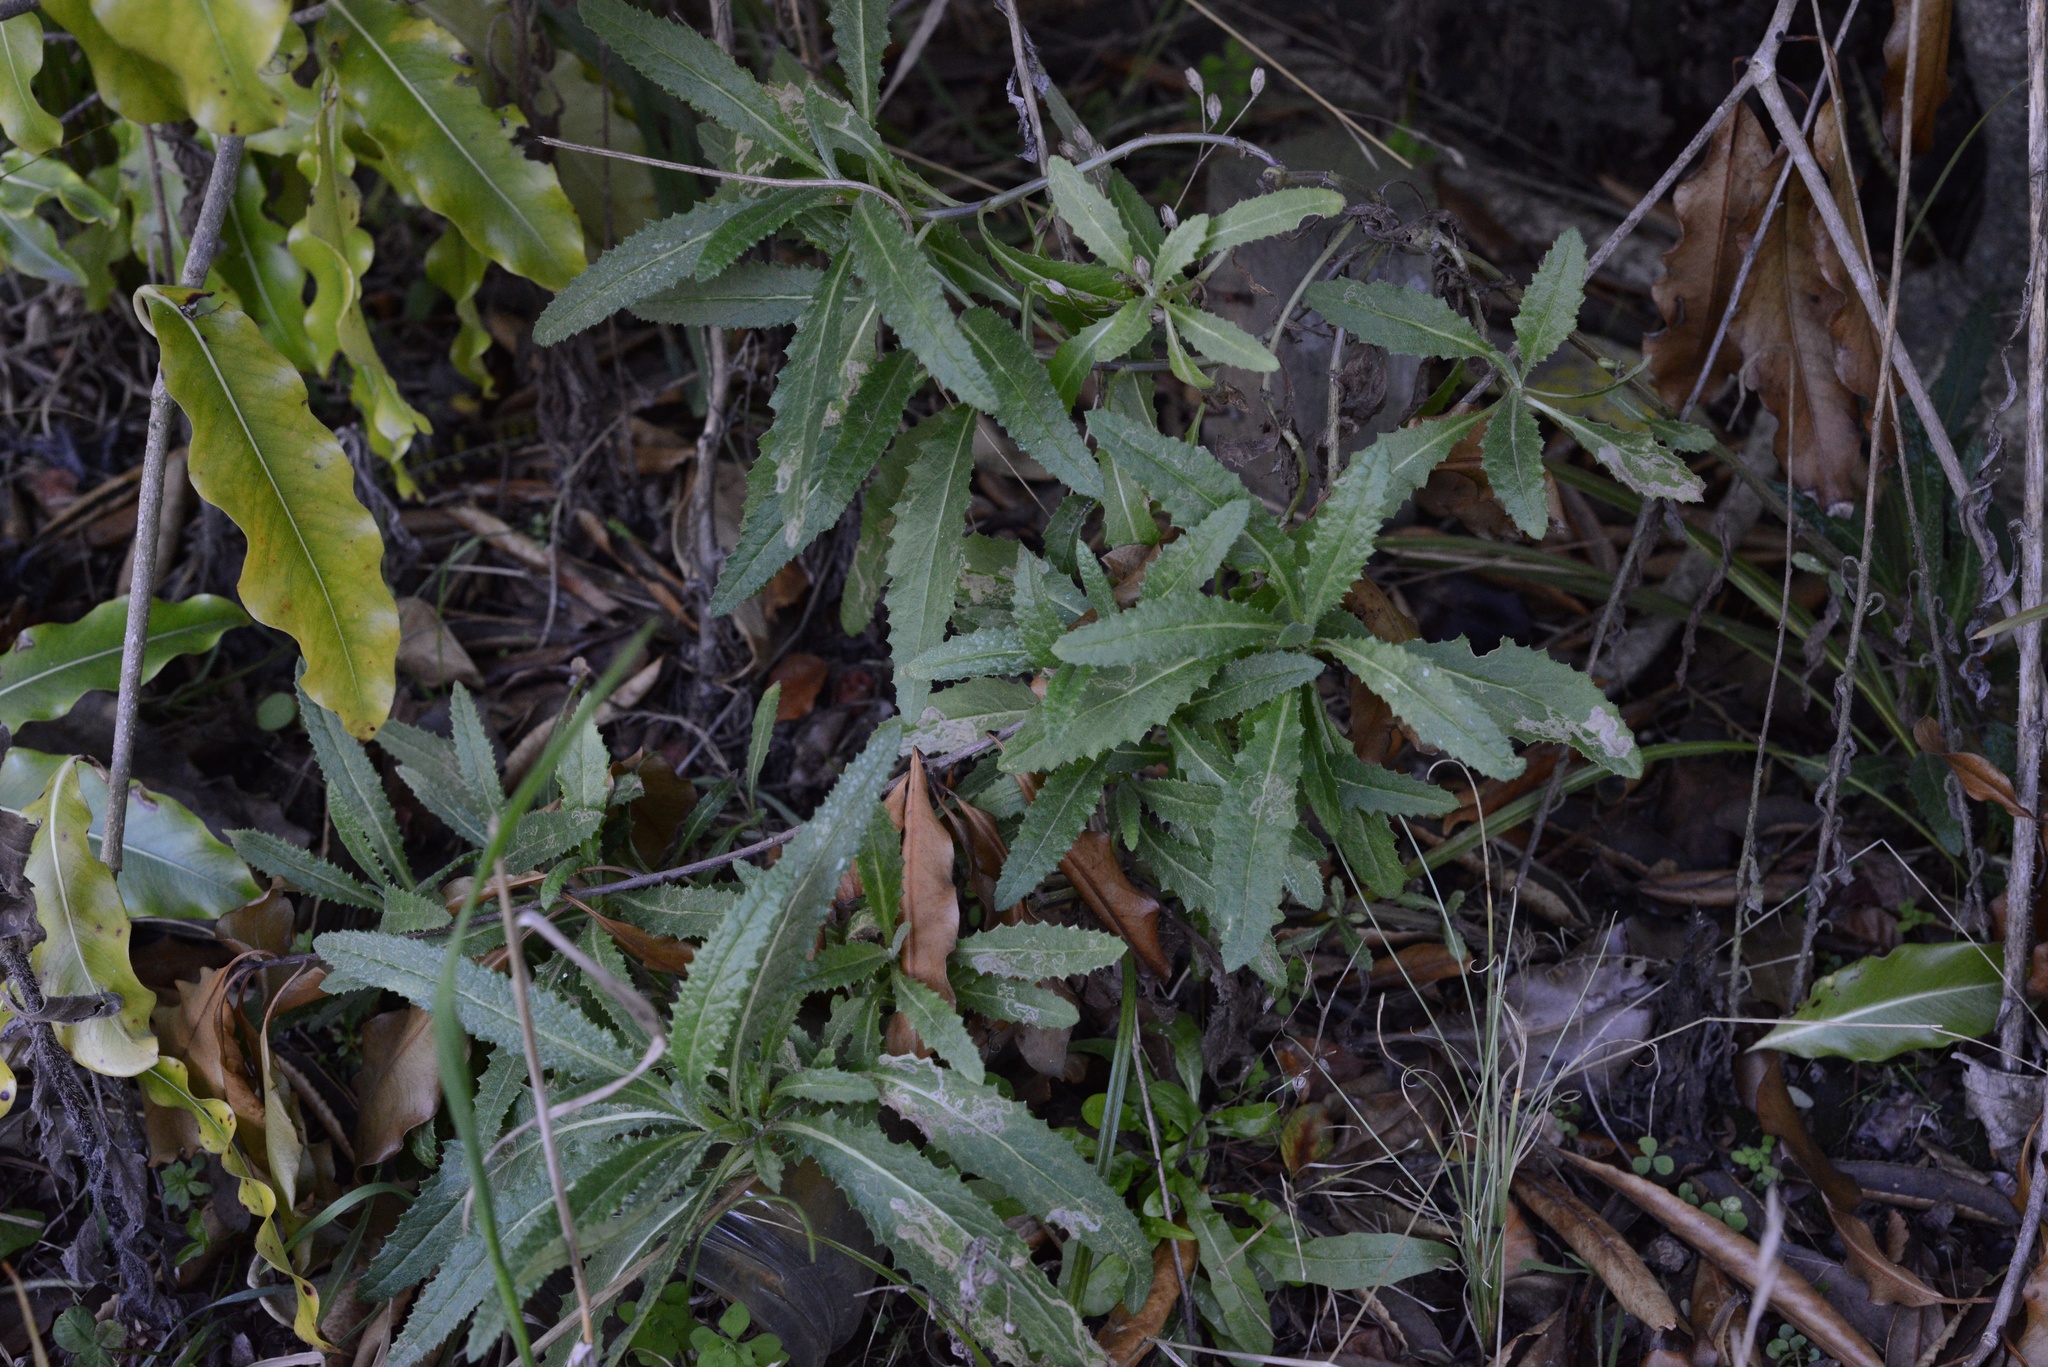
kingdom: Plantae
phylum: Tracheophyta
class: Magnoliopsida
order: Asterales
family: Asteraceae
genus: Senecio
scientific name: Senecio minimus
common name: Toothed fireweed
